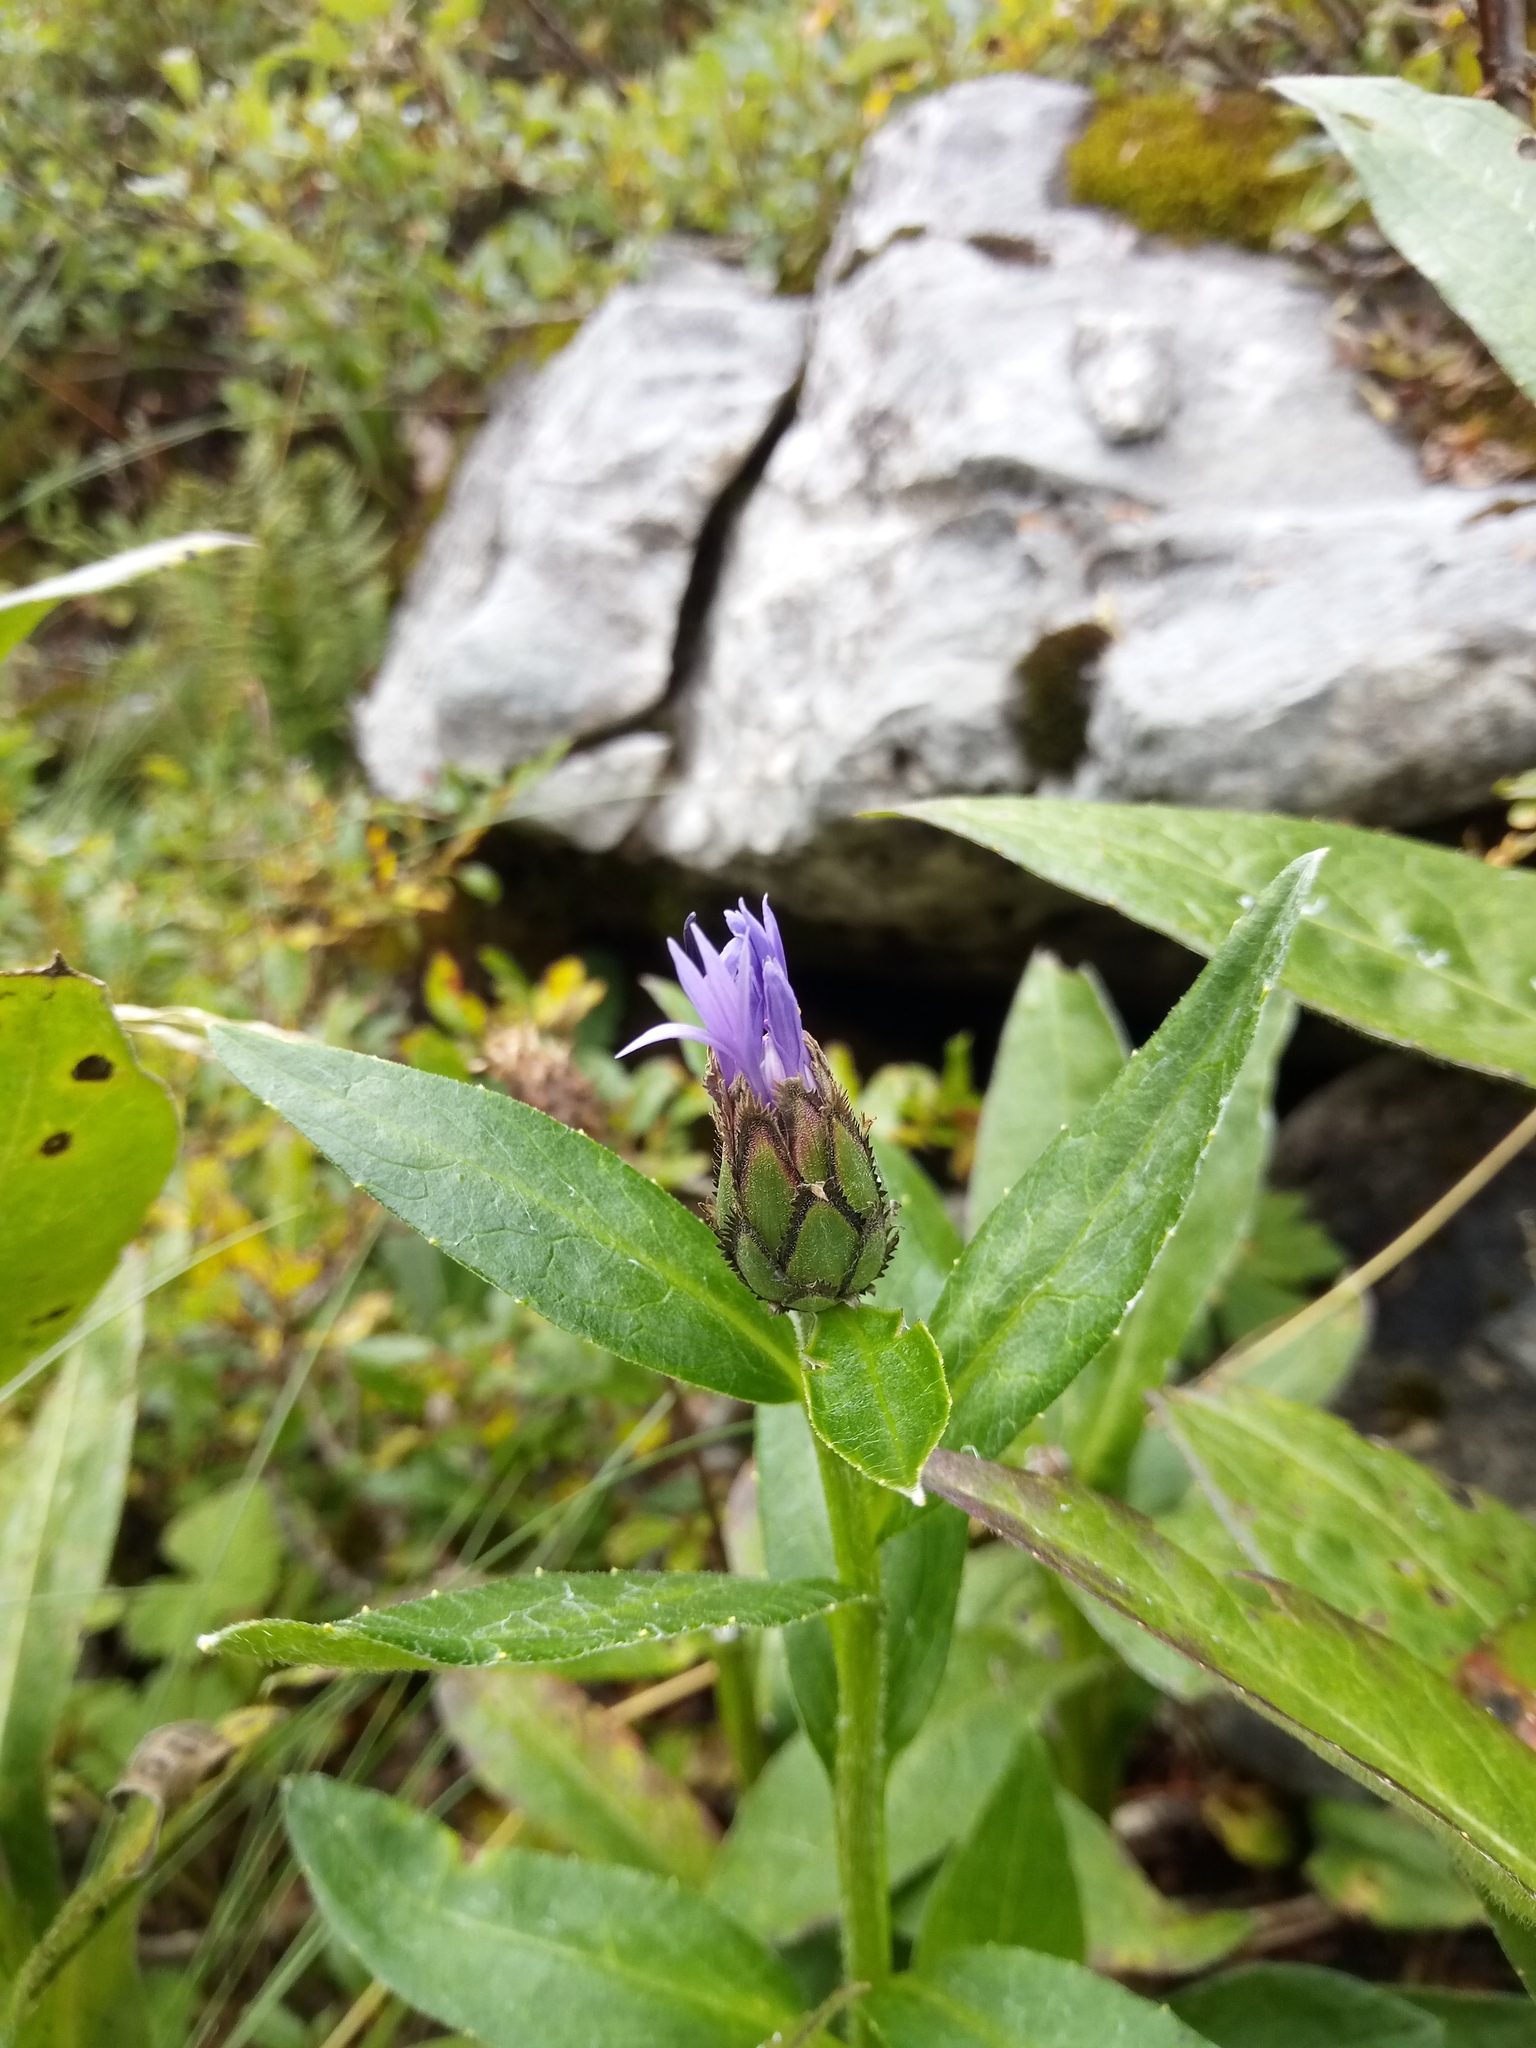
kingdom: Plantae
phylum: Tracheophyta
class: Magnoliopsida
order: Asterales
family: Asteraceae
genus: Centaurea
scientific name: Centaurea montana
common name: Perennial cornflower
